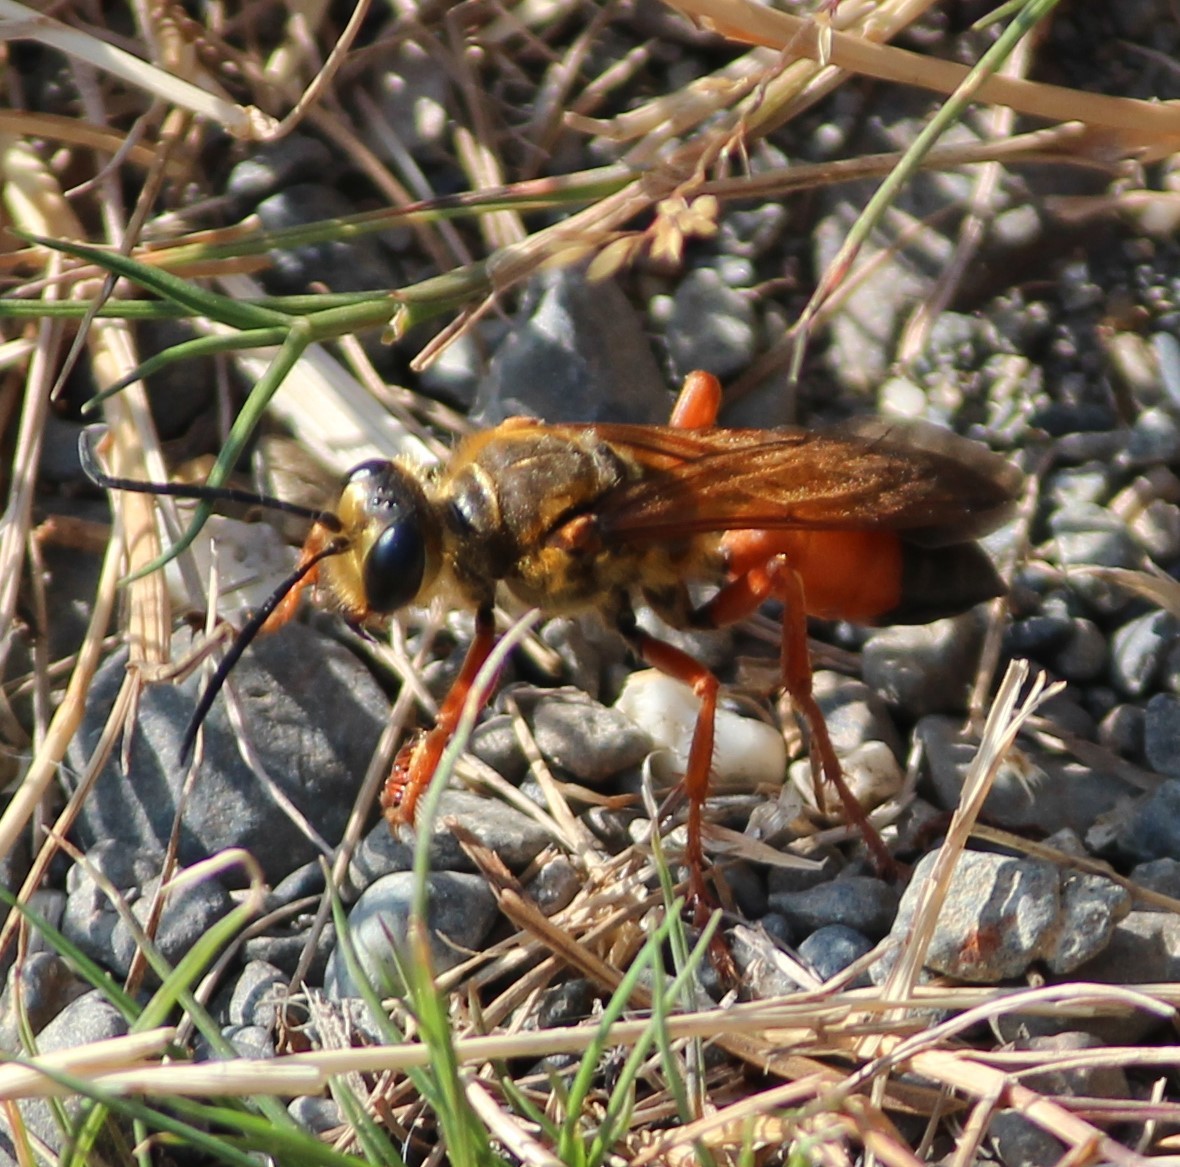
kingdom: Animalia
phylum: Arthropoda
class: Insecta
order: Hymenoptera
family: Sphecidae
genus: Sphex
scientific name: Sphex ichneumoneus
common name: Great golden digger wasp
